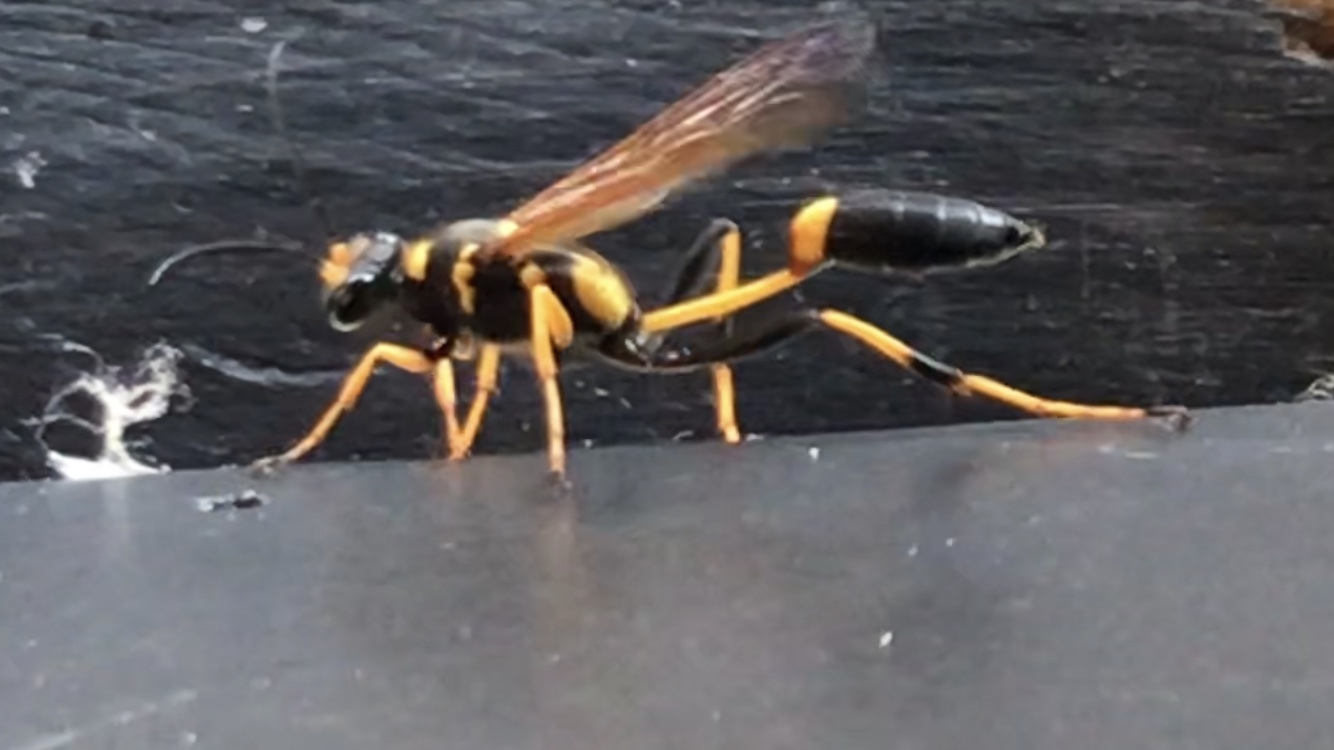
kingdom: Animalia
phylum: Arthropoda
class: Insecta
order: Hymenoptera
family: Sphecidae
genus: Sceliphron
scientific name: Sceliphron caementarium
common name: Mud dauber
